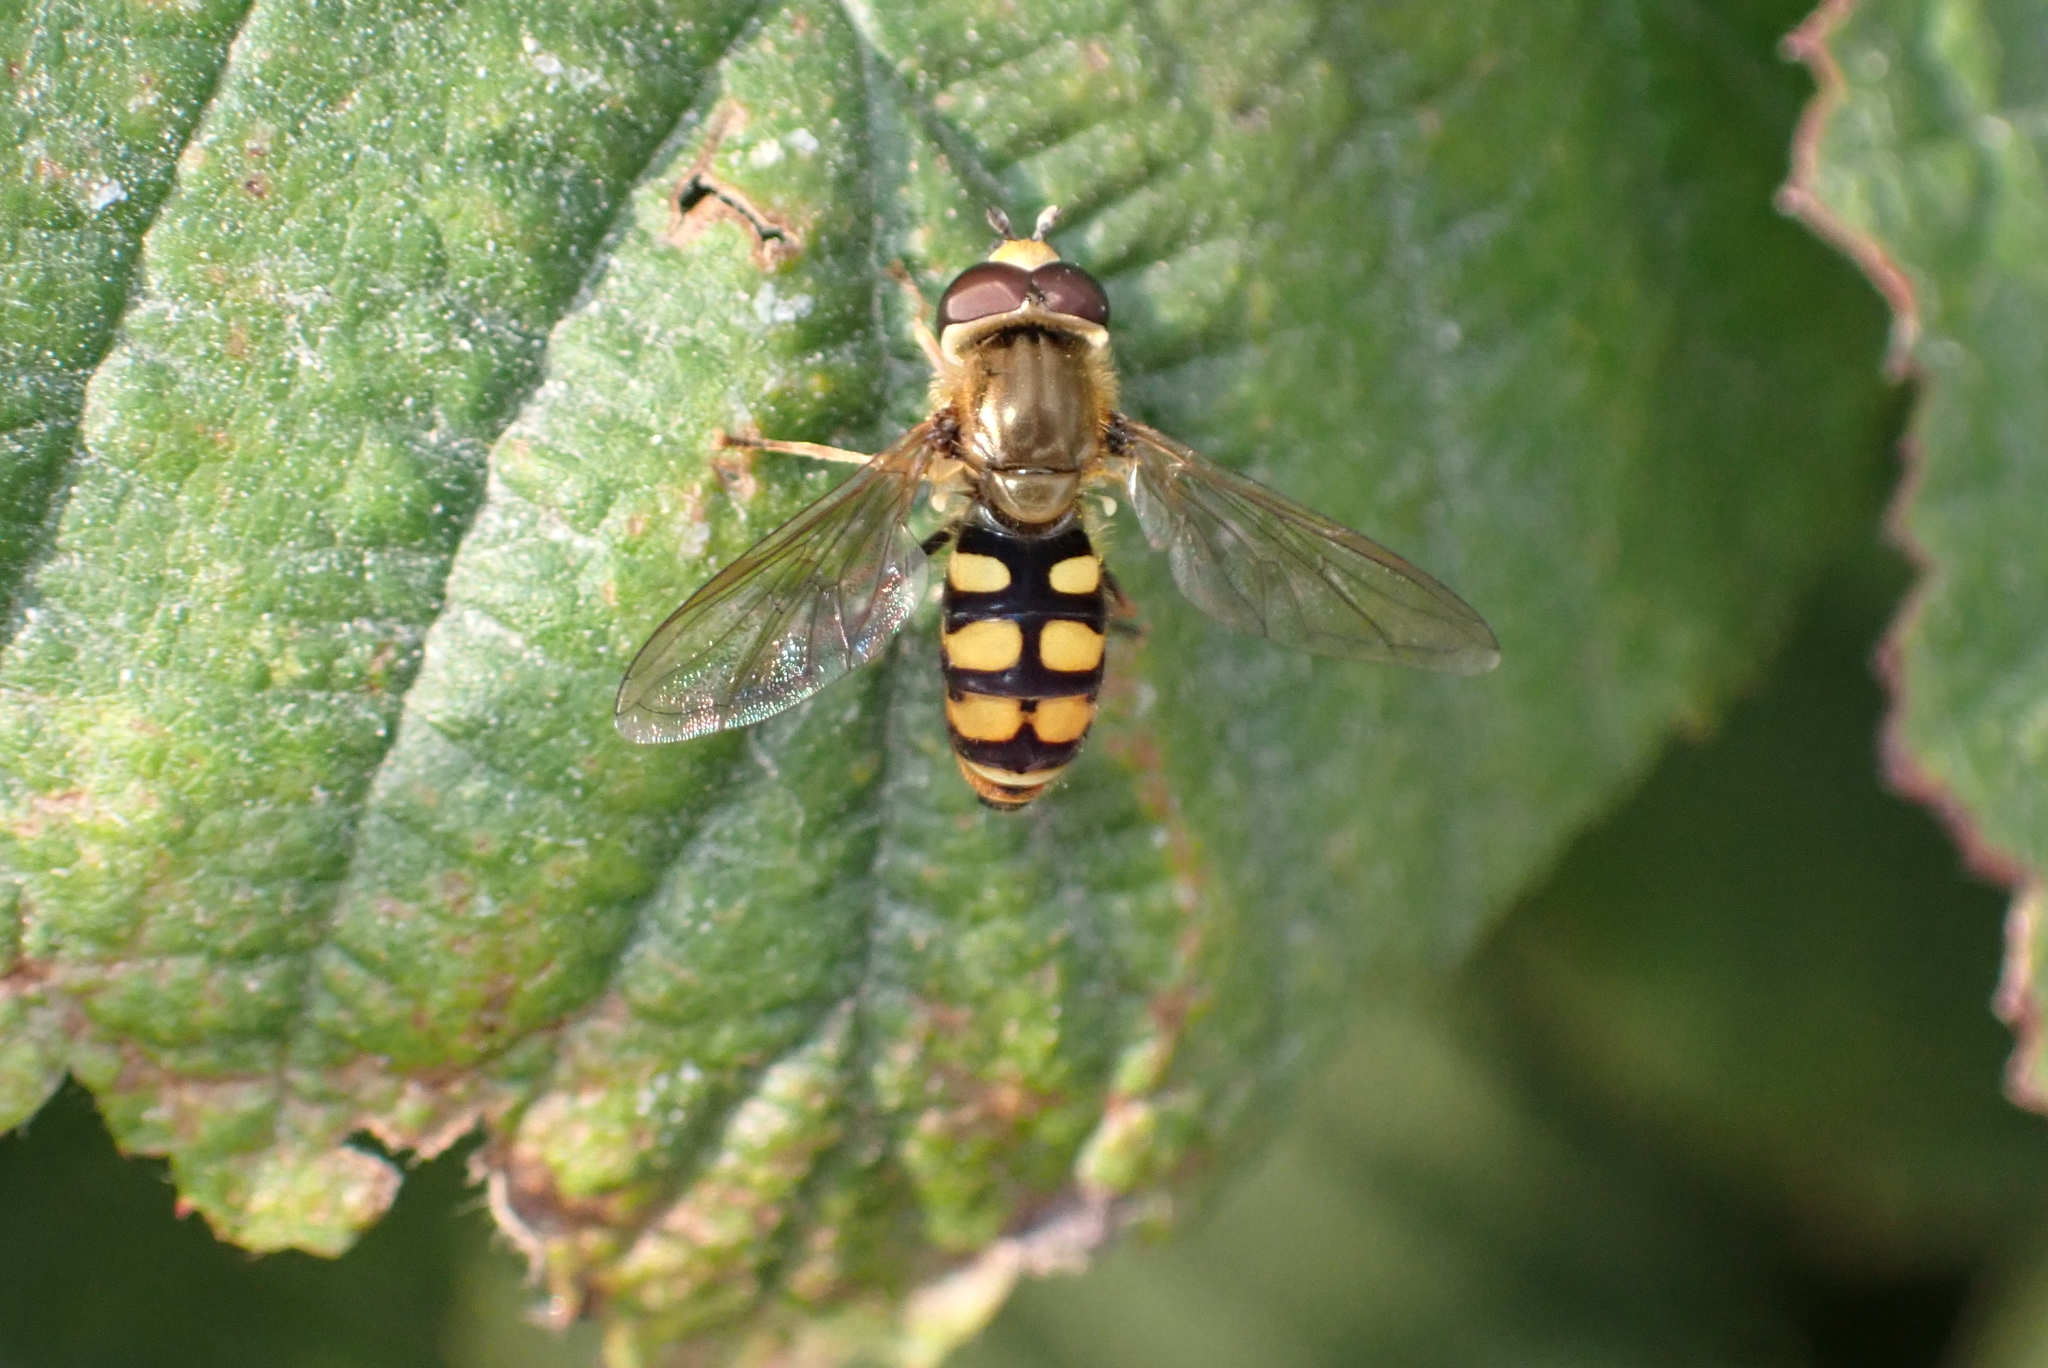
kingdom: Animalia
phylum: Arthropoda
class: Insecta
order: Diptera
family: Syrphidae
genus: Eupeodes
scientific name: Eupeodes corollae
